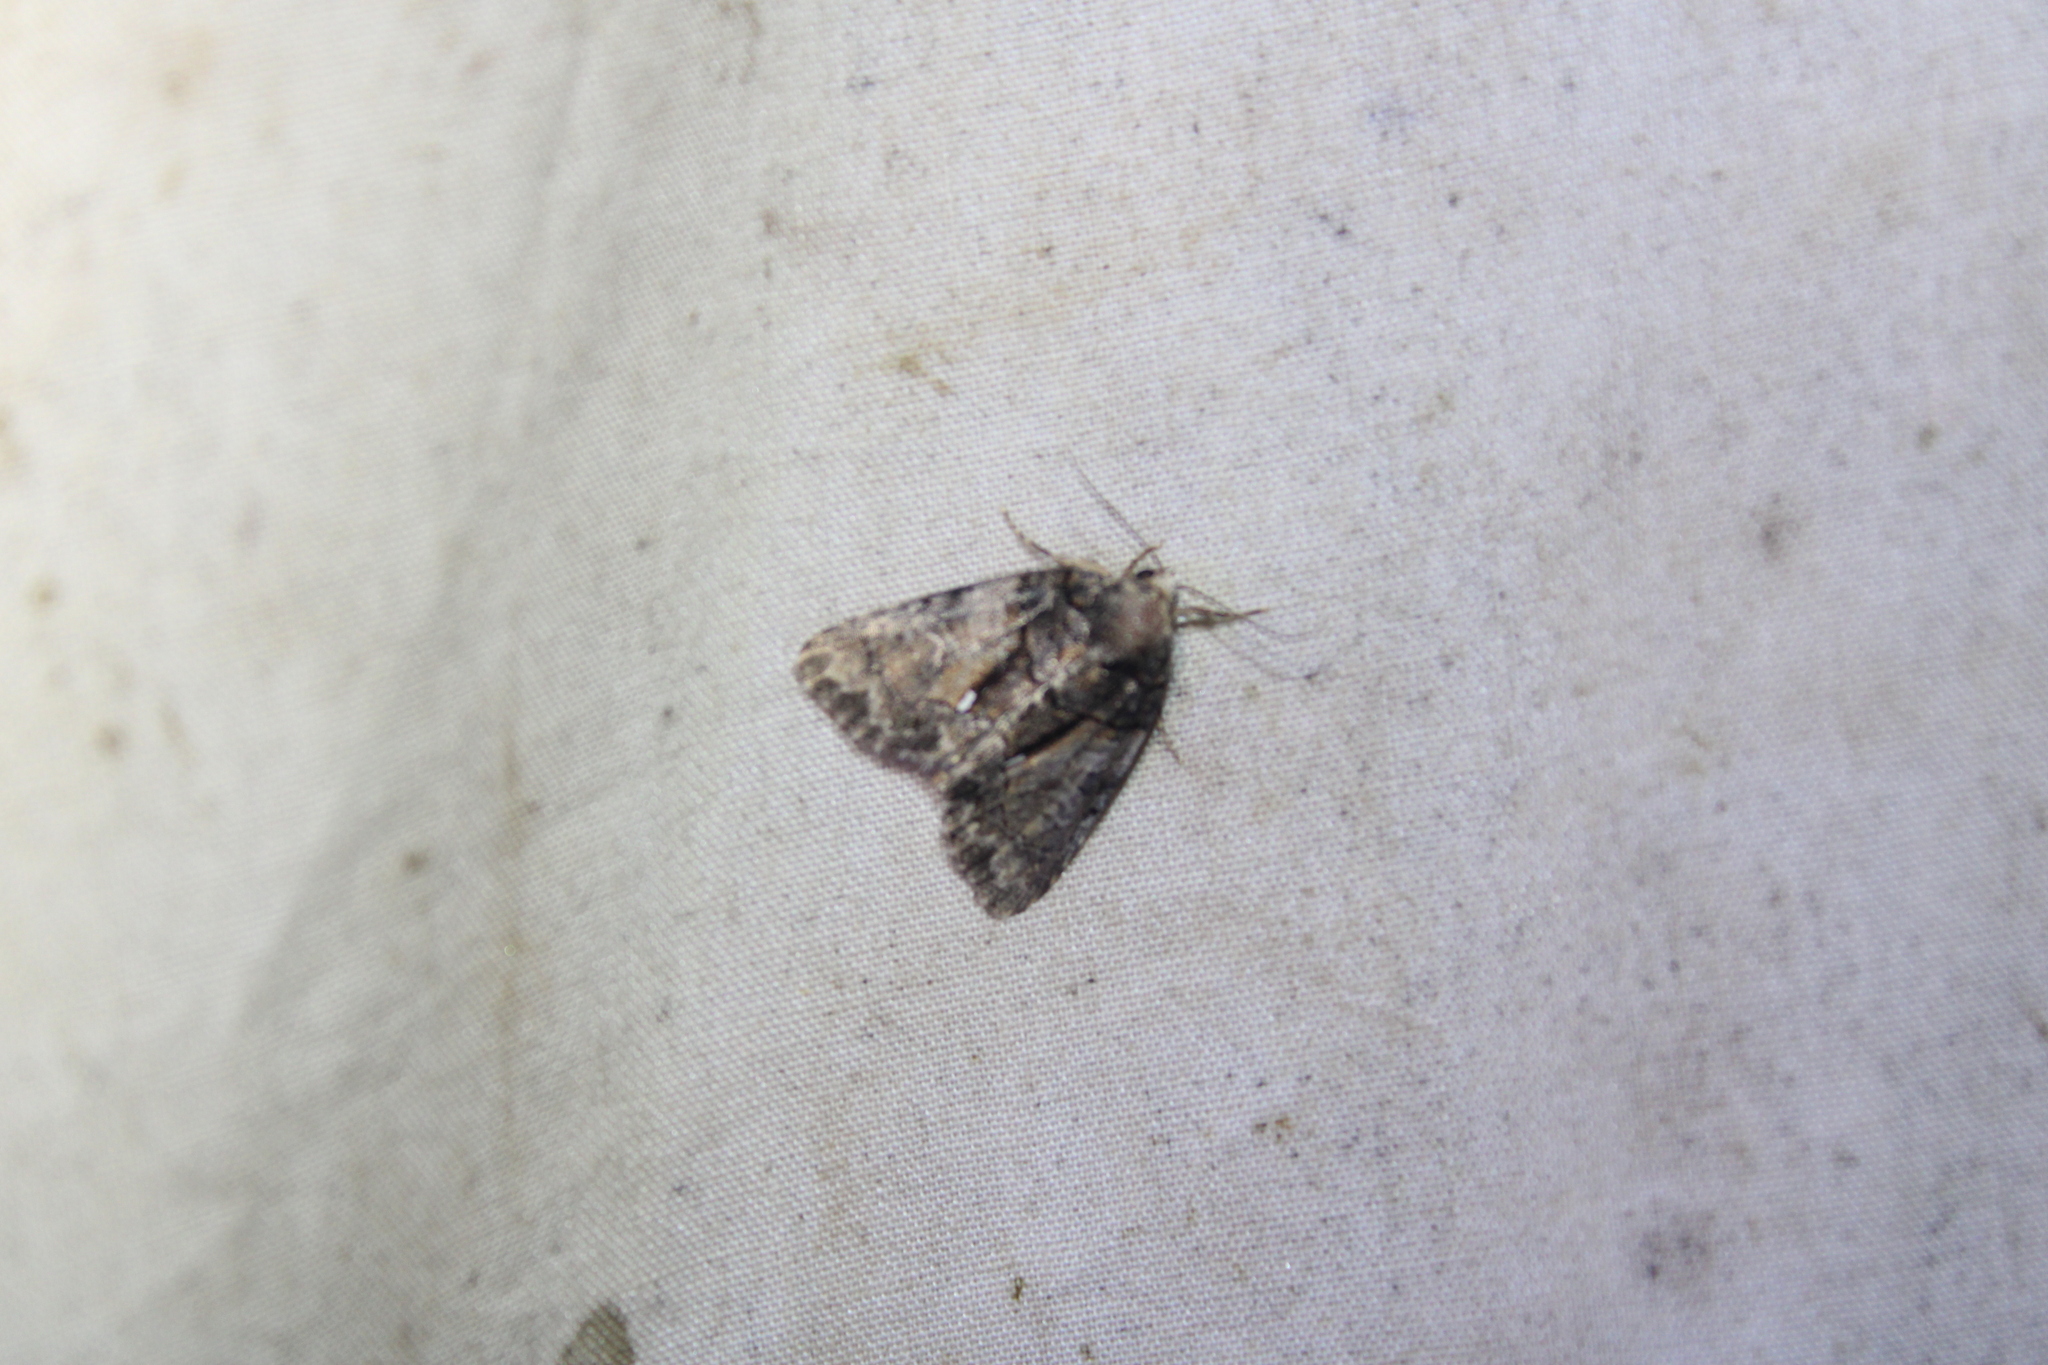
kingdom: Animalia
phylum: Arthropoda
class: Insecta
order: Lepidoptera
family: Noctuidae
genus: Chytonix
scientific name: Chytonix palliatricula
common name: Cloaked marvel
